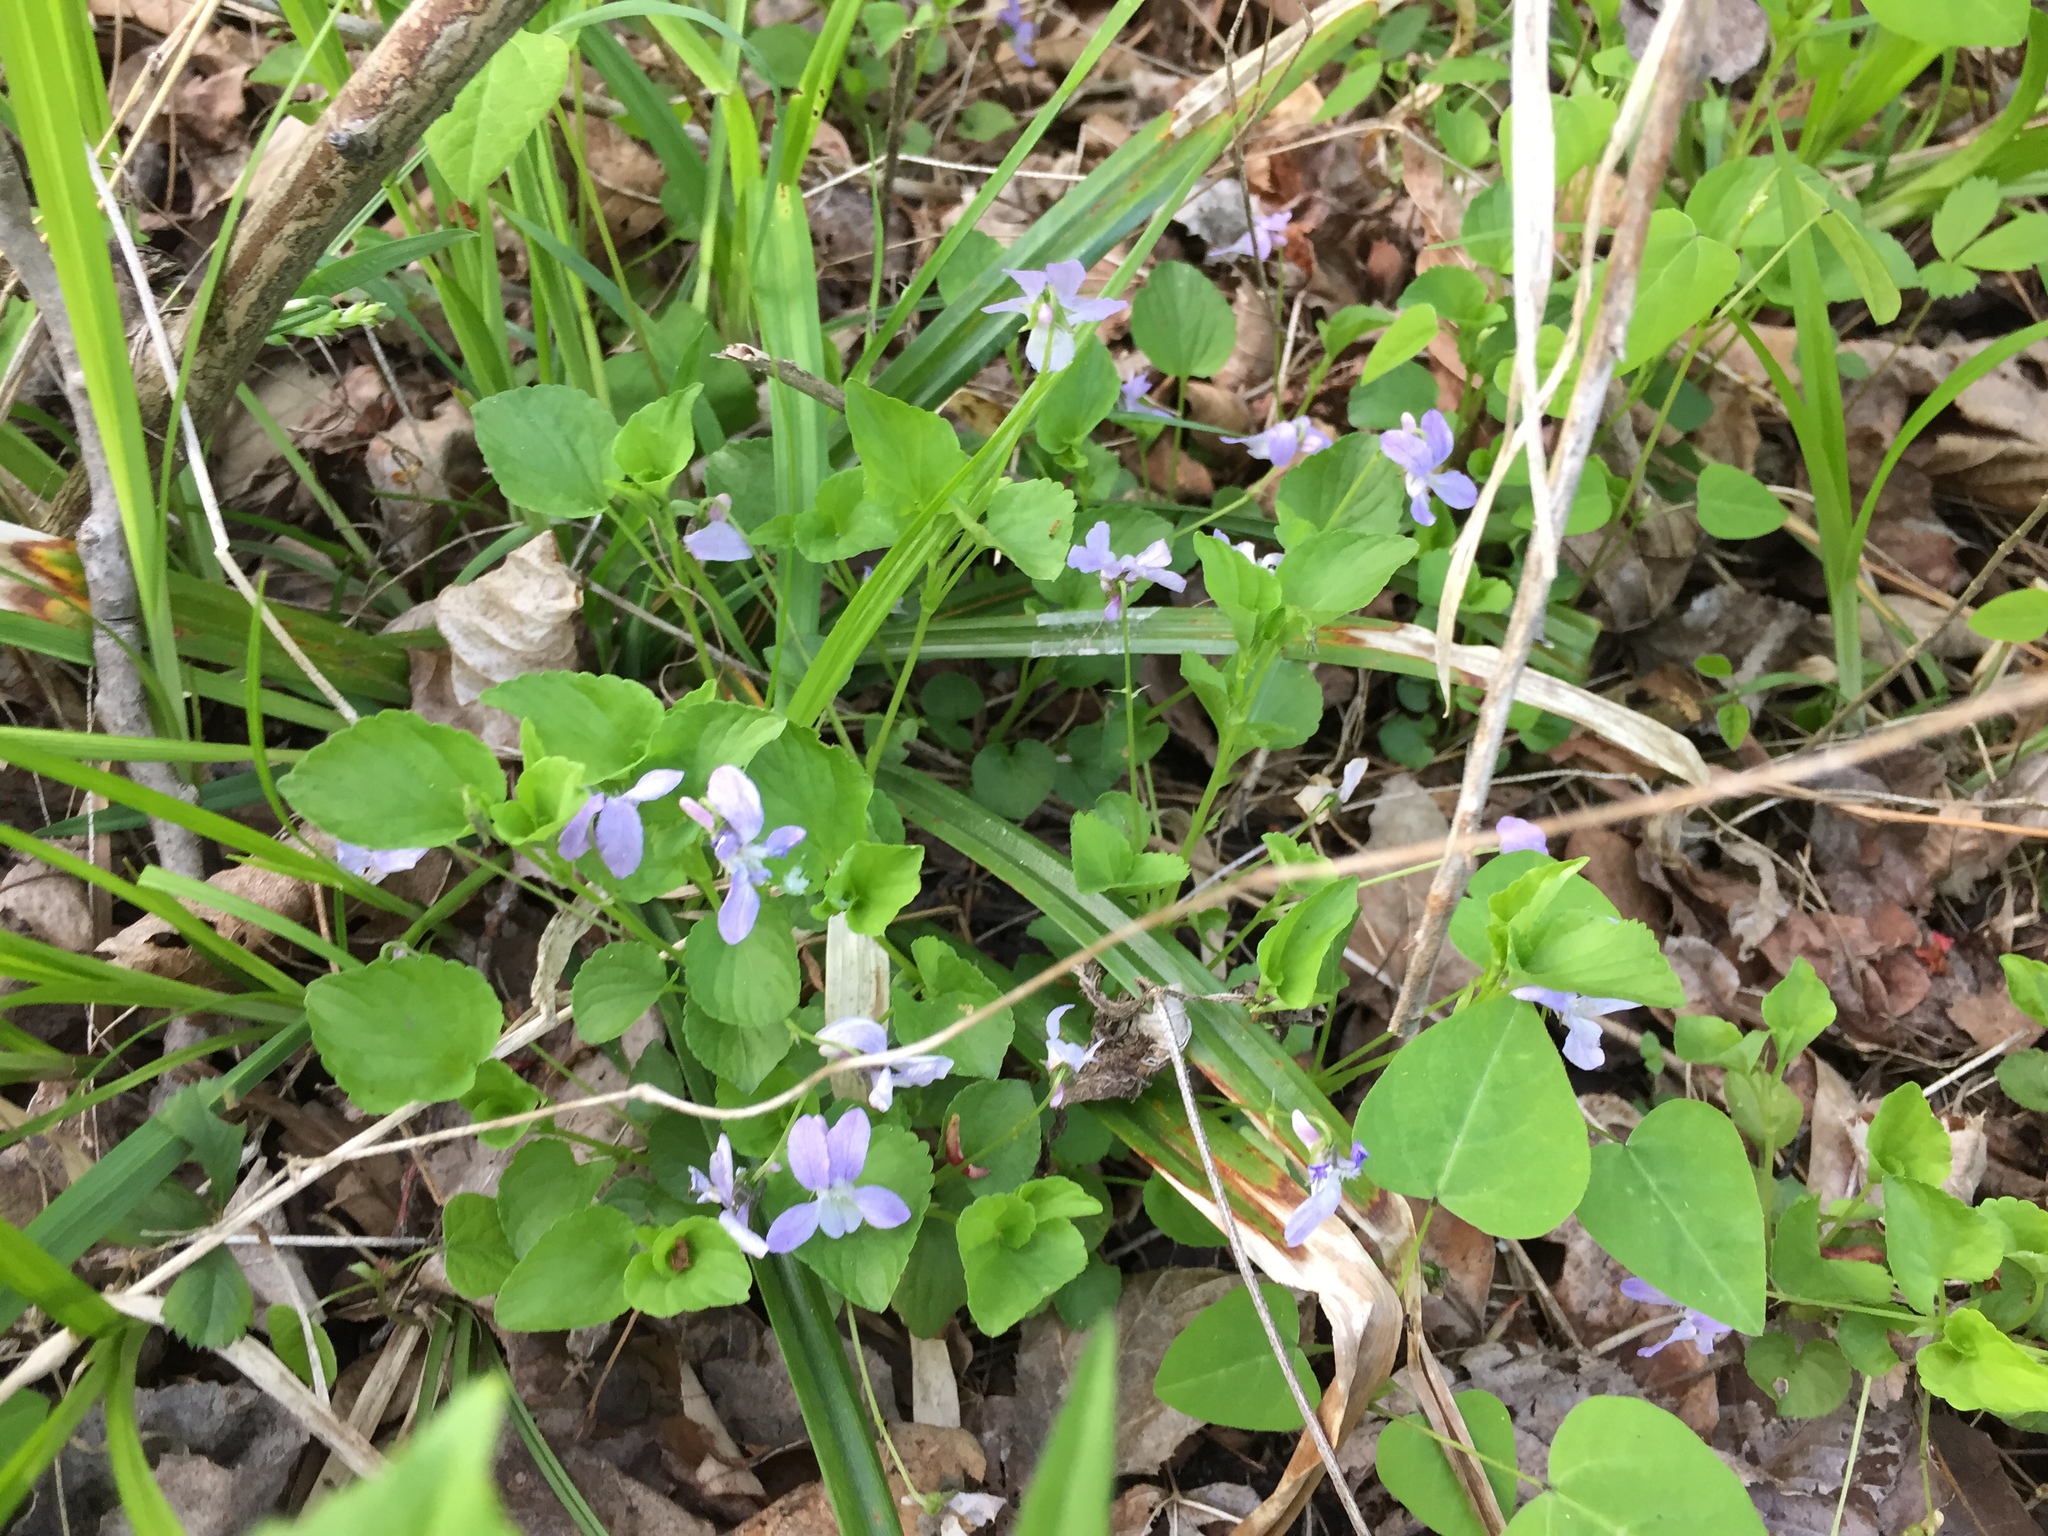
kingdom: Plantae
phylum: Tracheophyta
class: Magnoliopsida
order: Malpighiales
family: Violaceae
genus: Viola
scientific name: Viola labradorica
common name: Labrador violet
